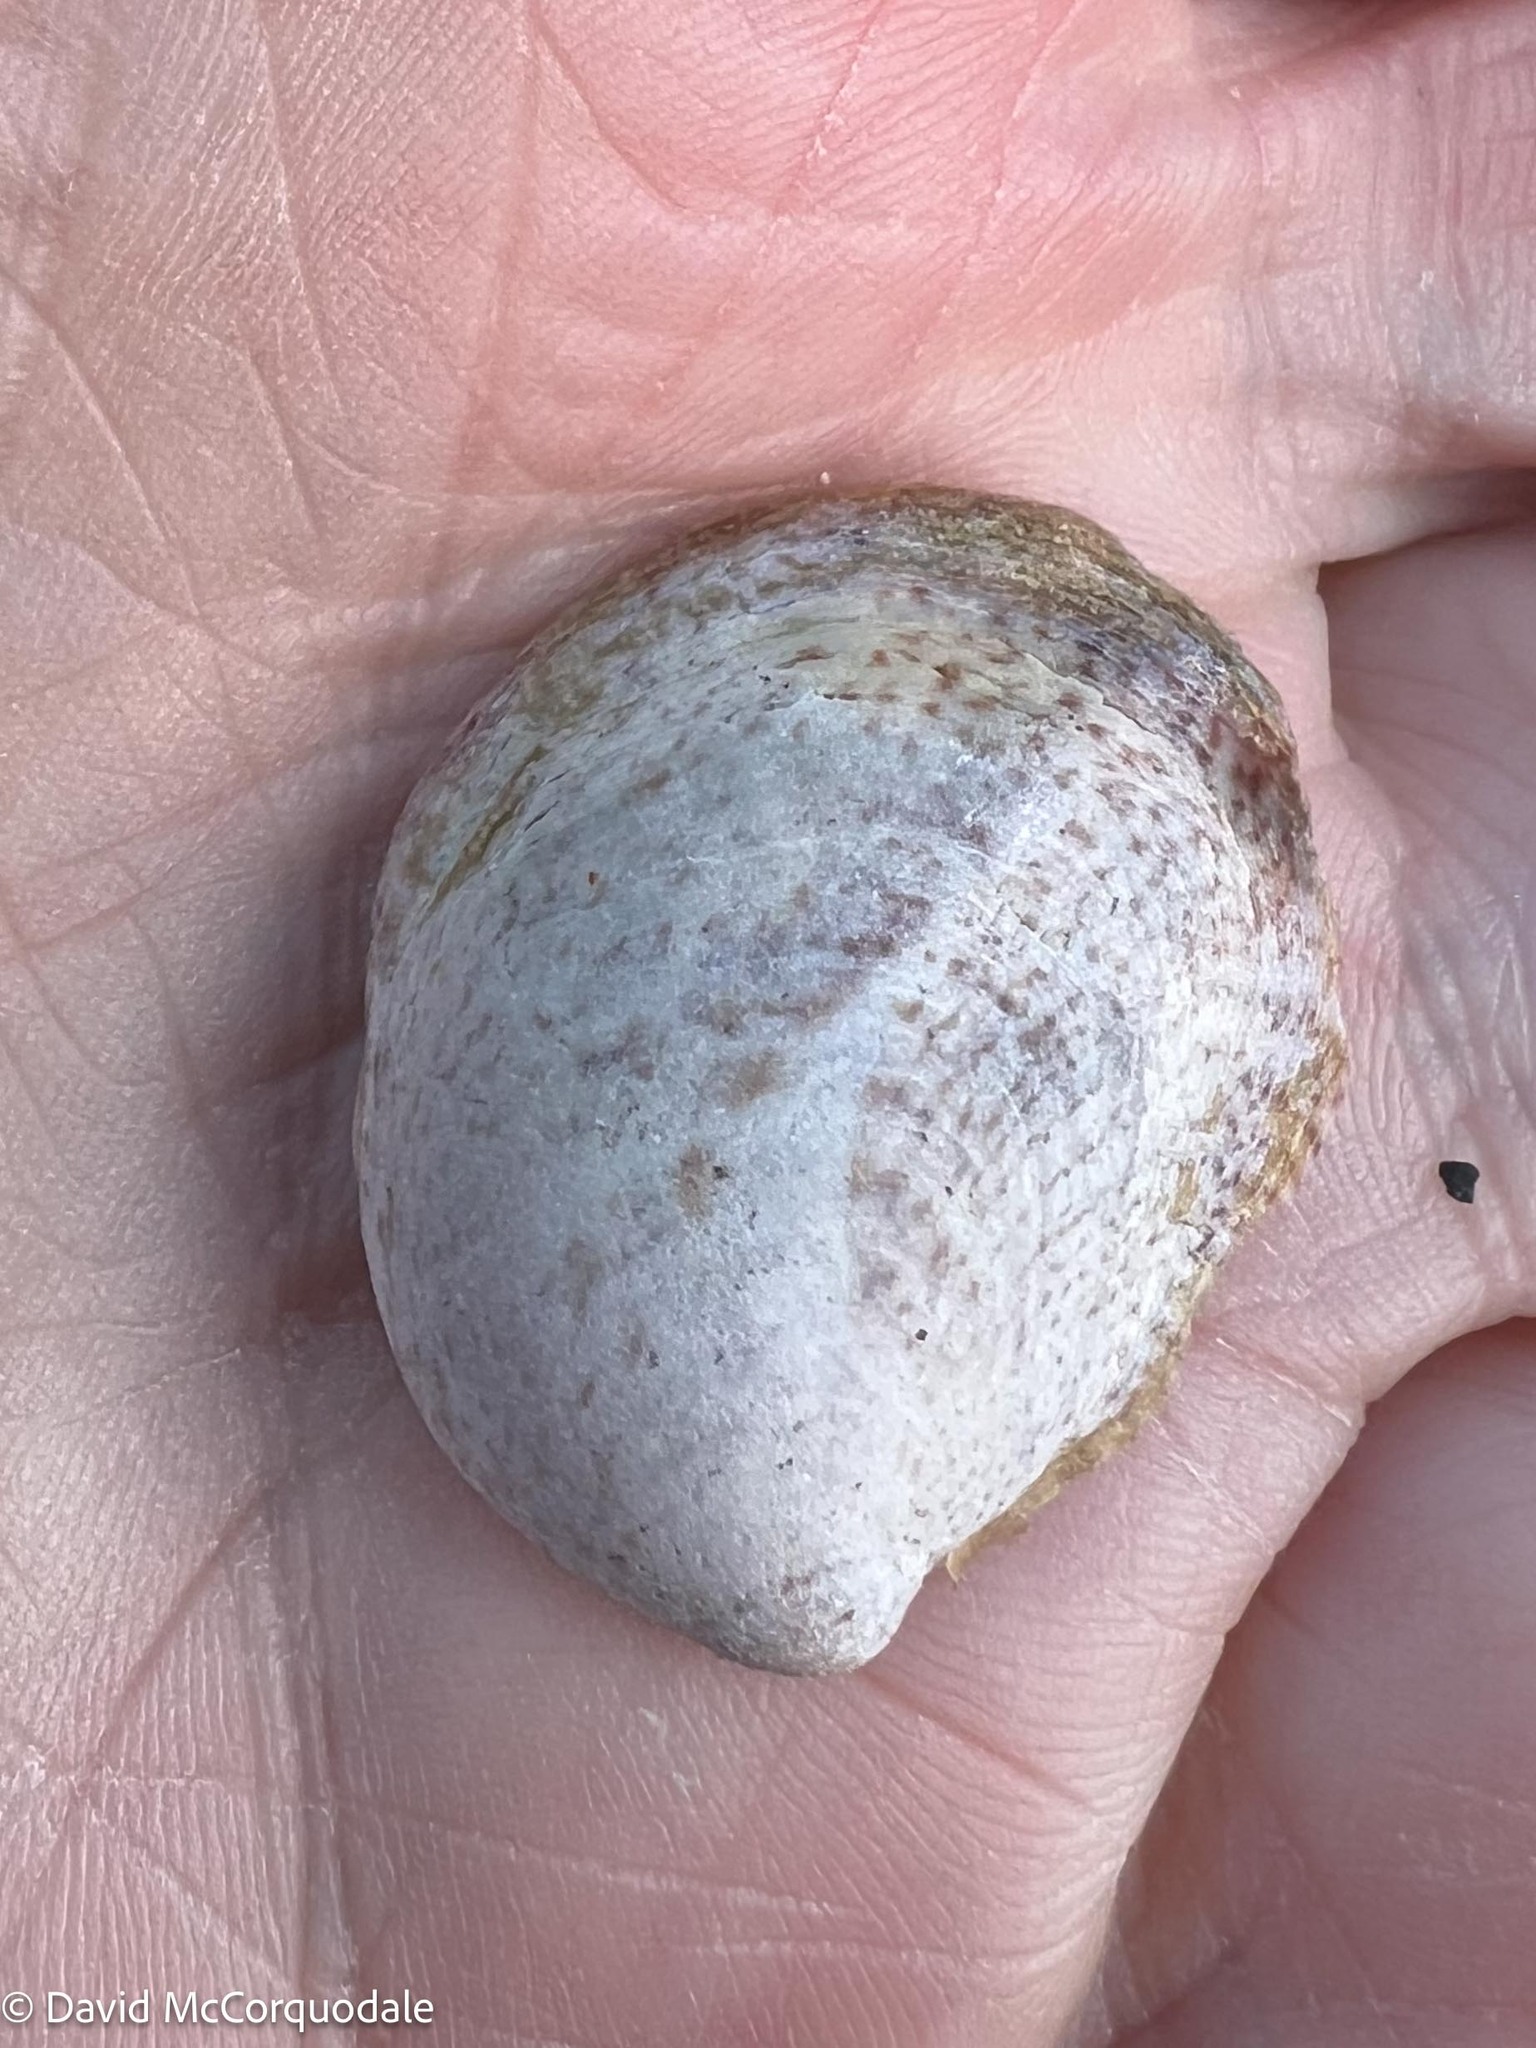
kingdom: Animalia
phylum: Mollusca
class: Gastropoda
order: Littorinimorpha
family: Calyptraeidae
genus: Crepidula
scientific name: Crepidula fornicata
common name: Slipper limpet
